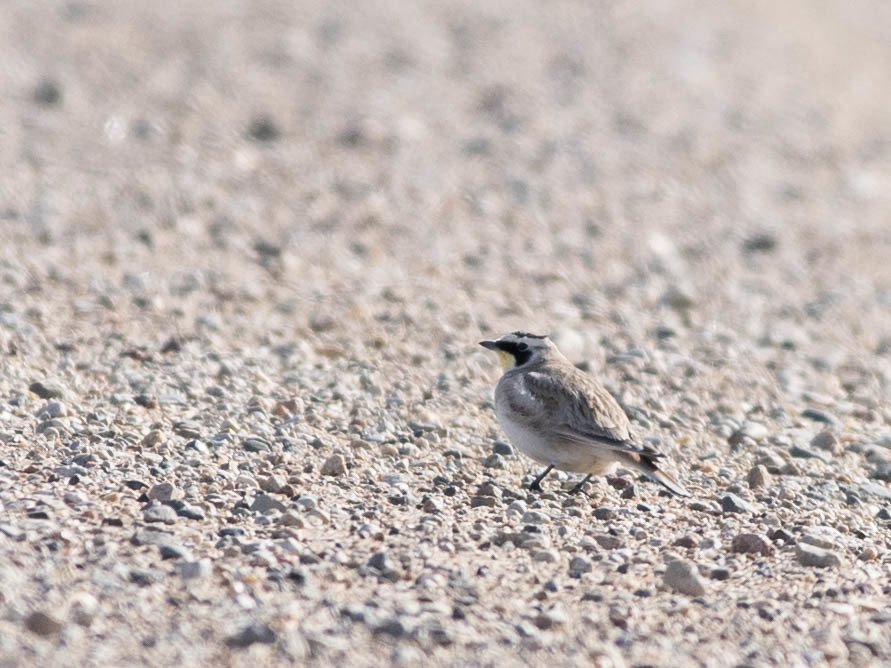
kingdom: Animalia
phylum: Chordata
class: Aves
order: Passeriformes
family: Alaudidae
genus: Eremophila
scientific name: Eremophila alpestris
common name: Horned lark
